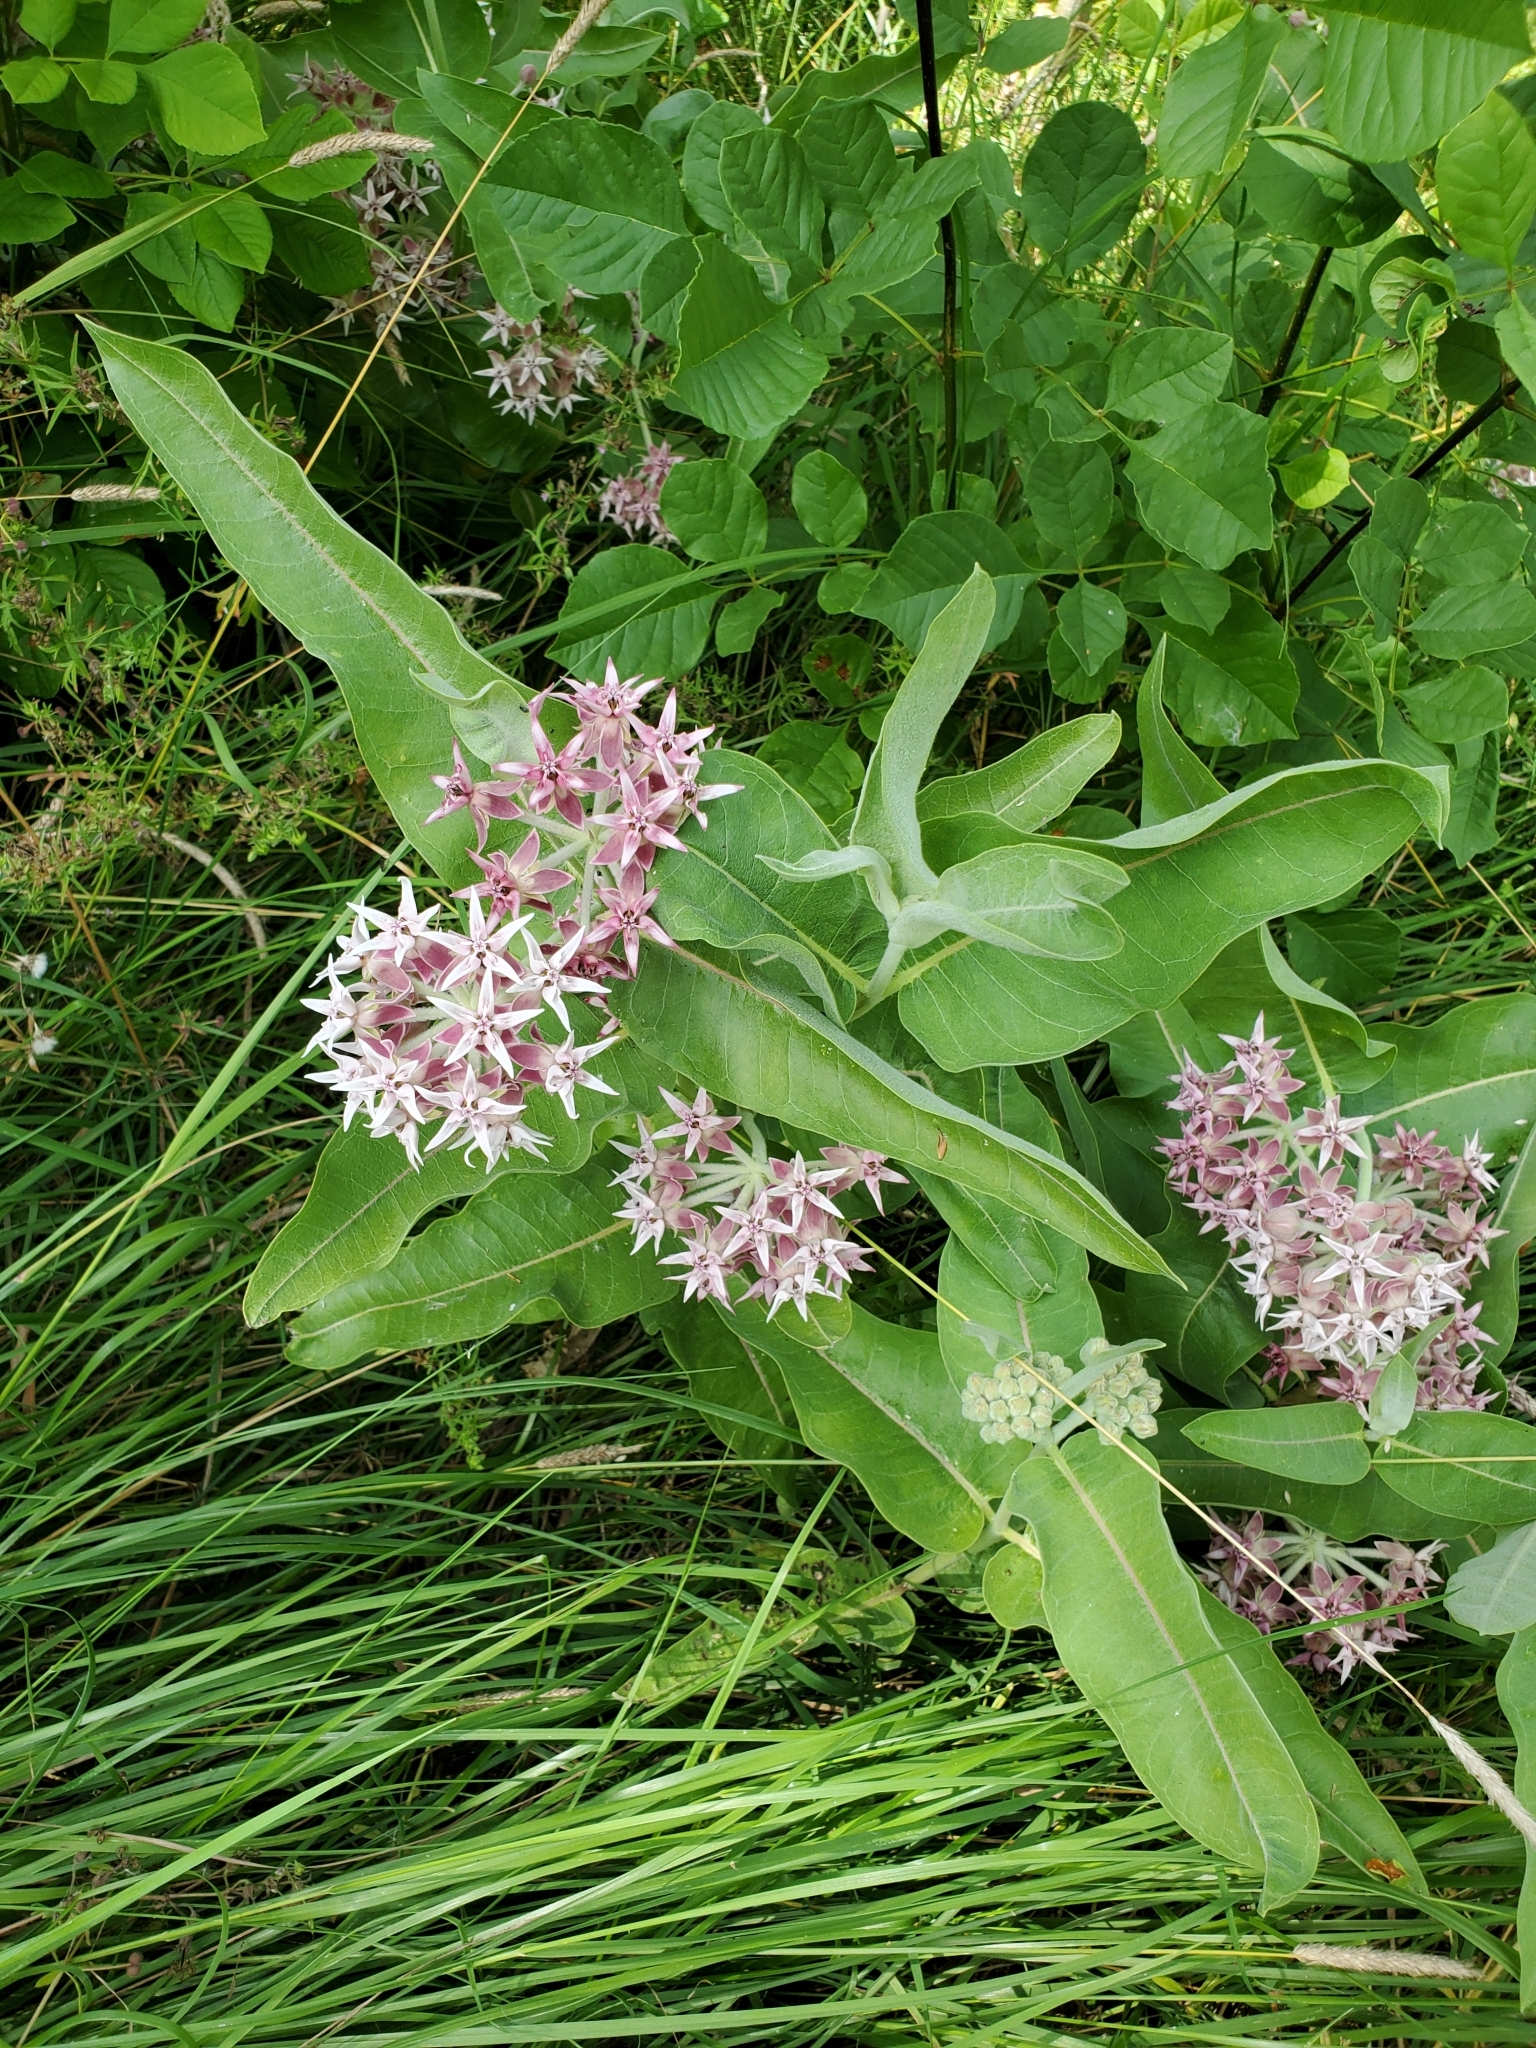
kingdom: Plantae
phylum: Tracheophyta
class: Magnoliopsida
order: Gentianales
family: Apocynaceae
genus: Asclepias
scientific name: Asclepias speciosa
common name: Showy milkweed
